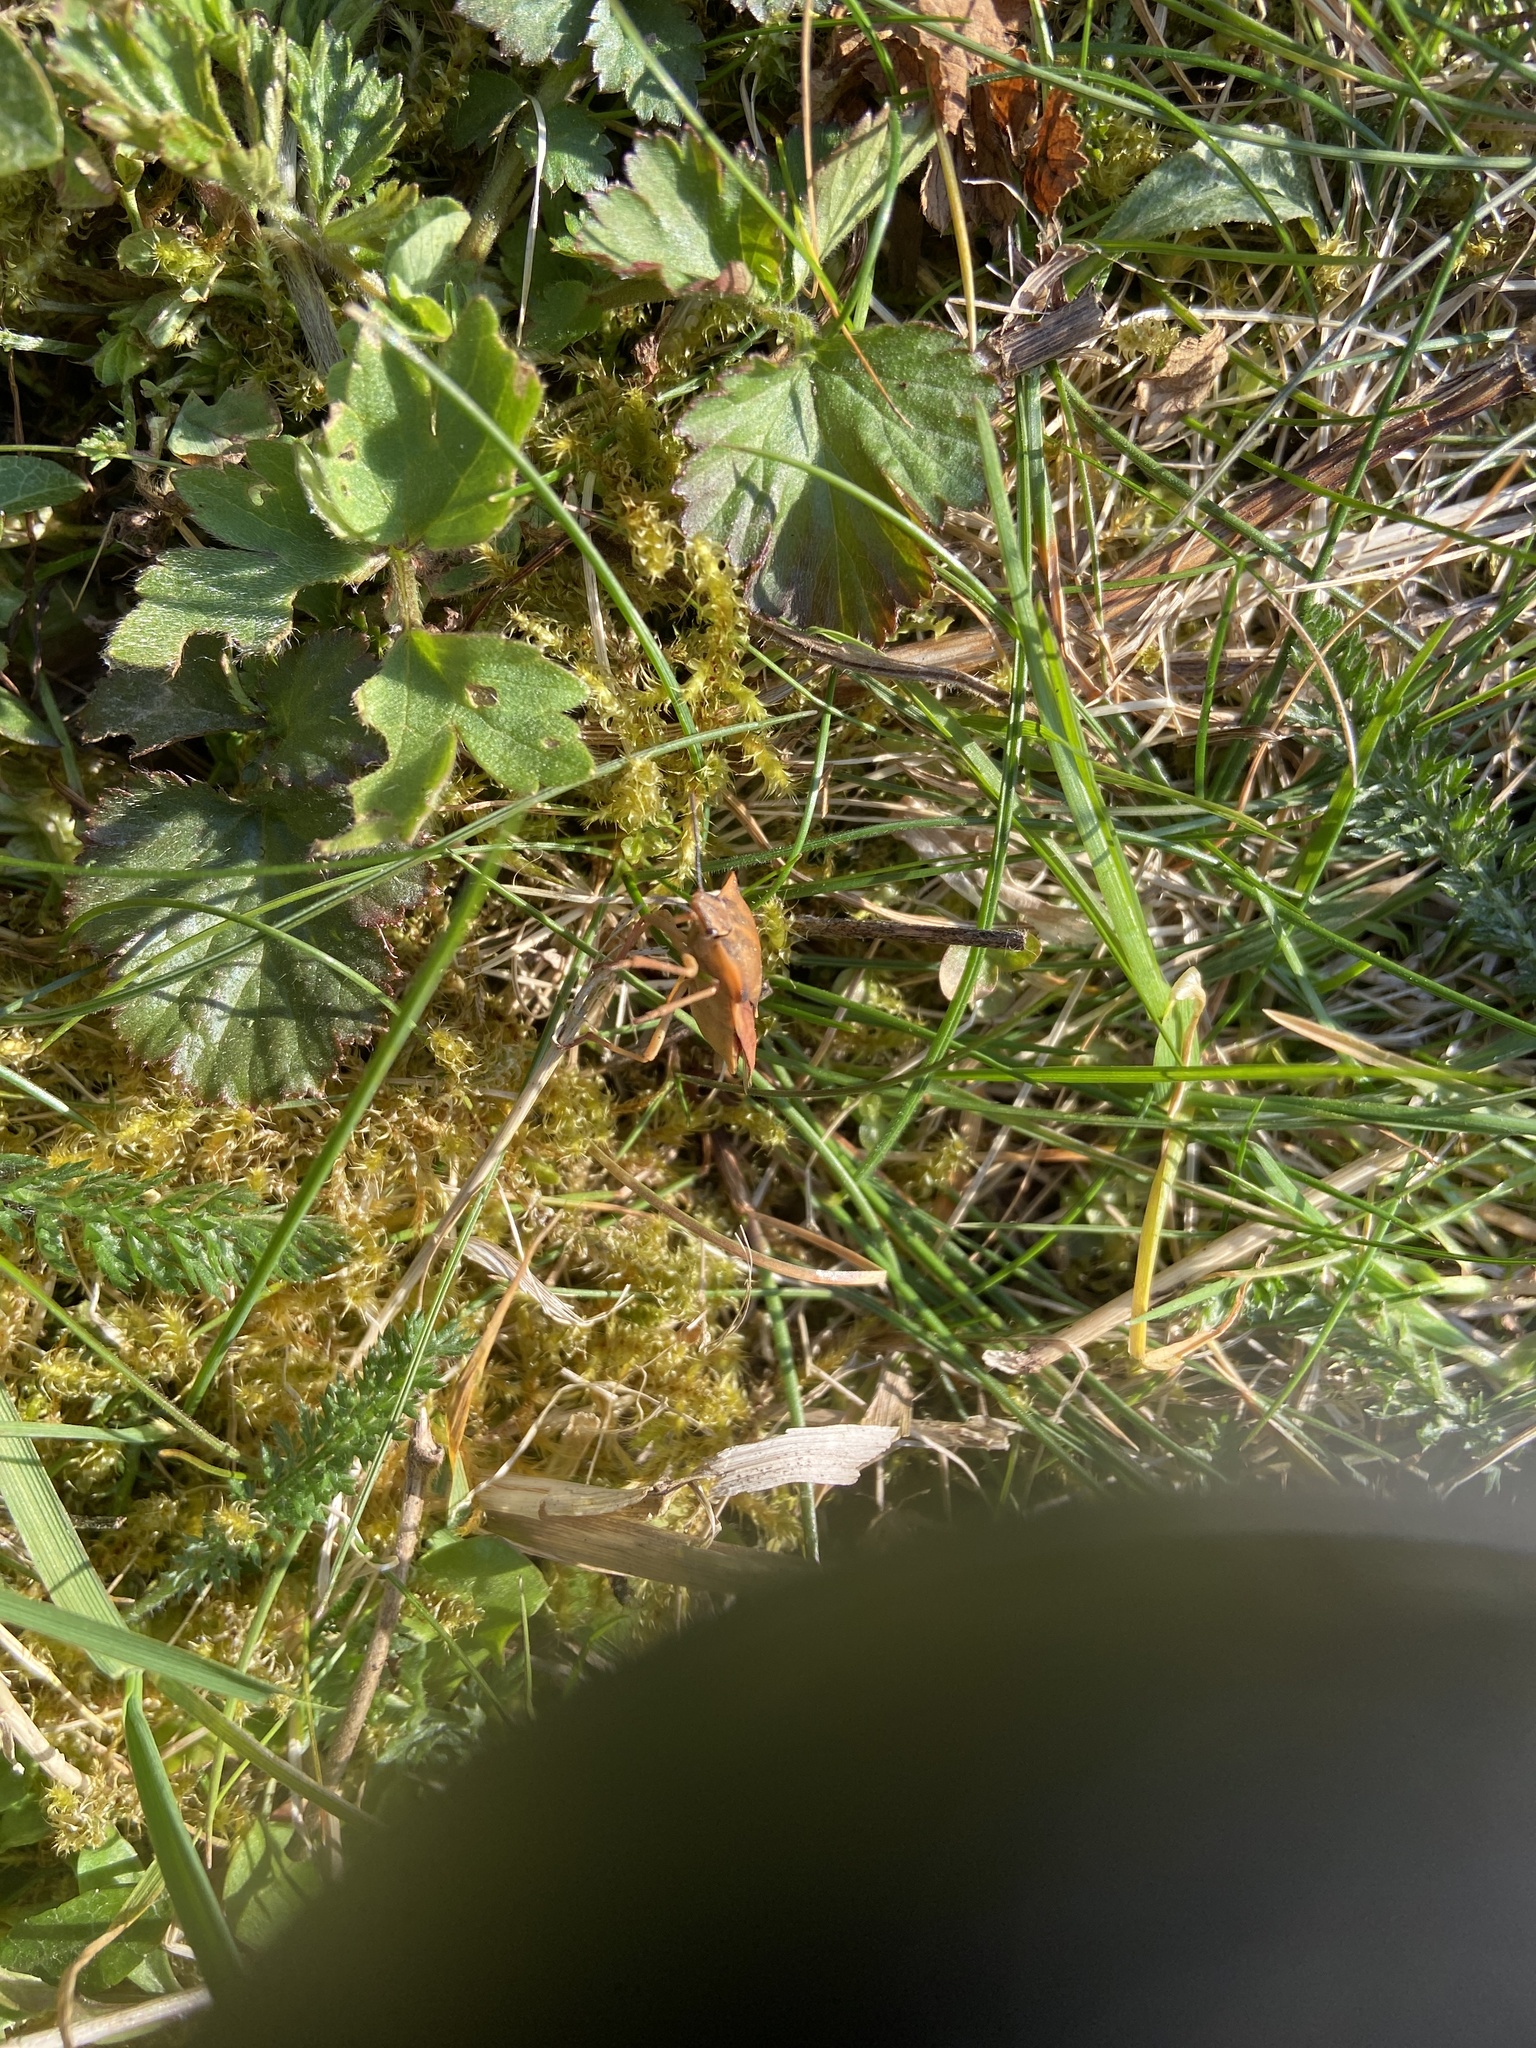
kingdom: Animalia
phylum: Arthropoda
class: Insecta
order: Hemiptera
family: Pentatomidae
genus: Carpocoris
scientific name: Carpocoris fuscispinus
